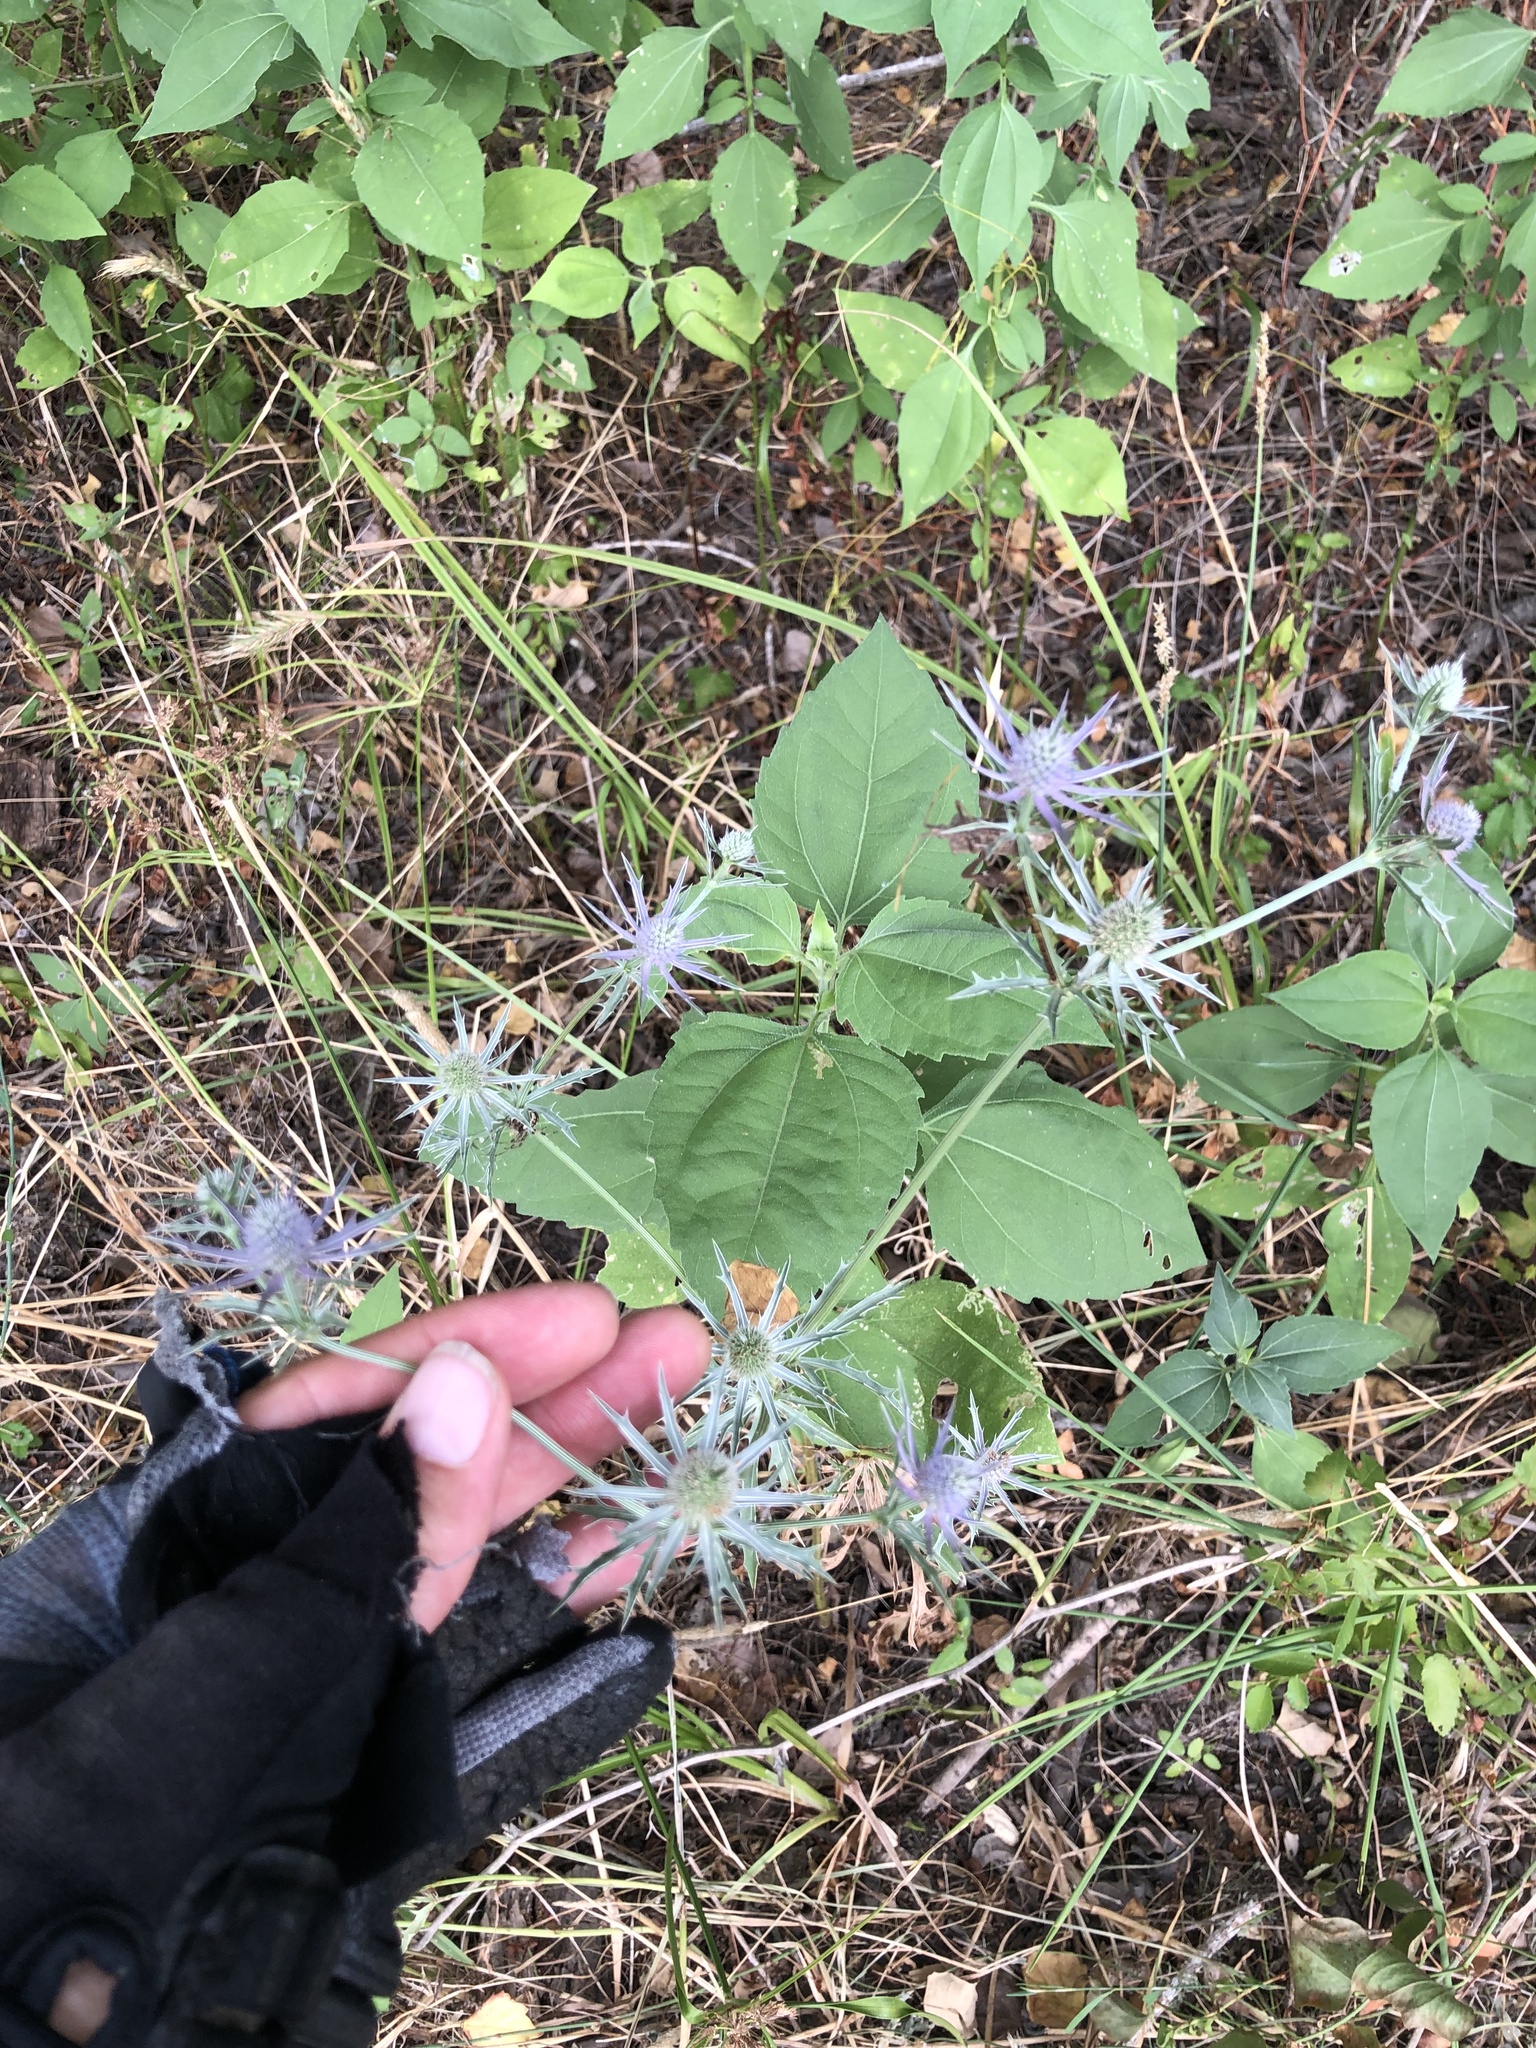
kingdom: Plantae
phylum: Tracheophyta
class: Magnoliopsida
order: Apiales
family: Apiaceae
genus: Eryngium
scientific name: Eryngium hookeri
